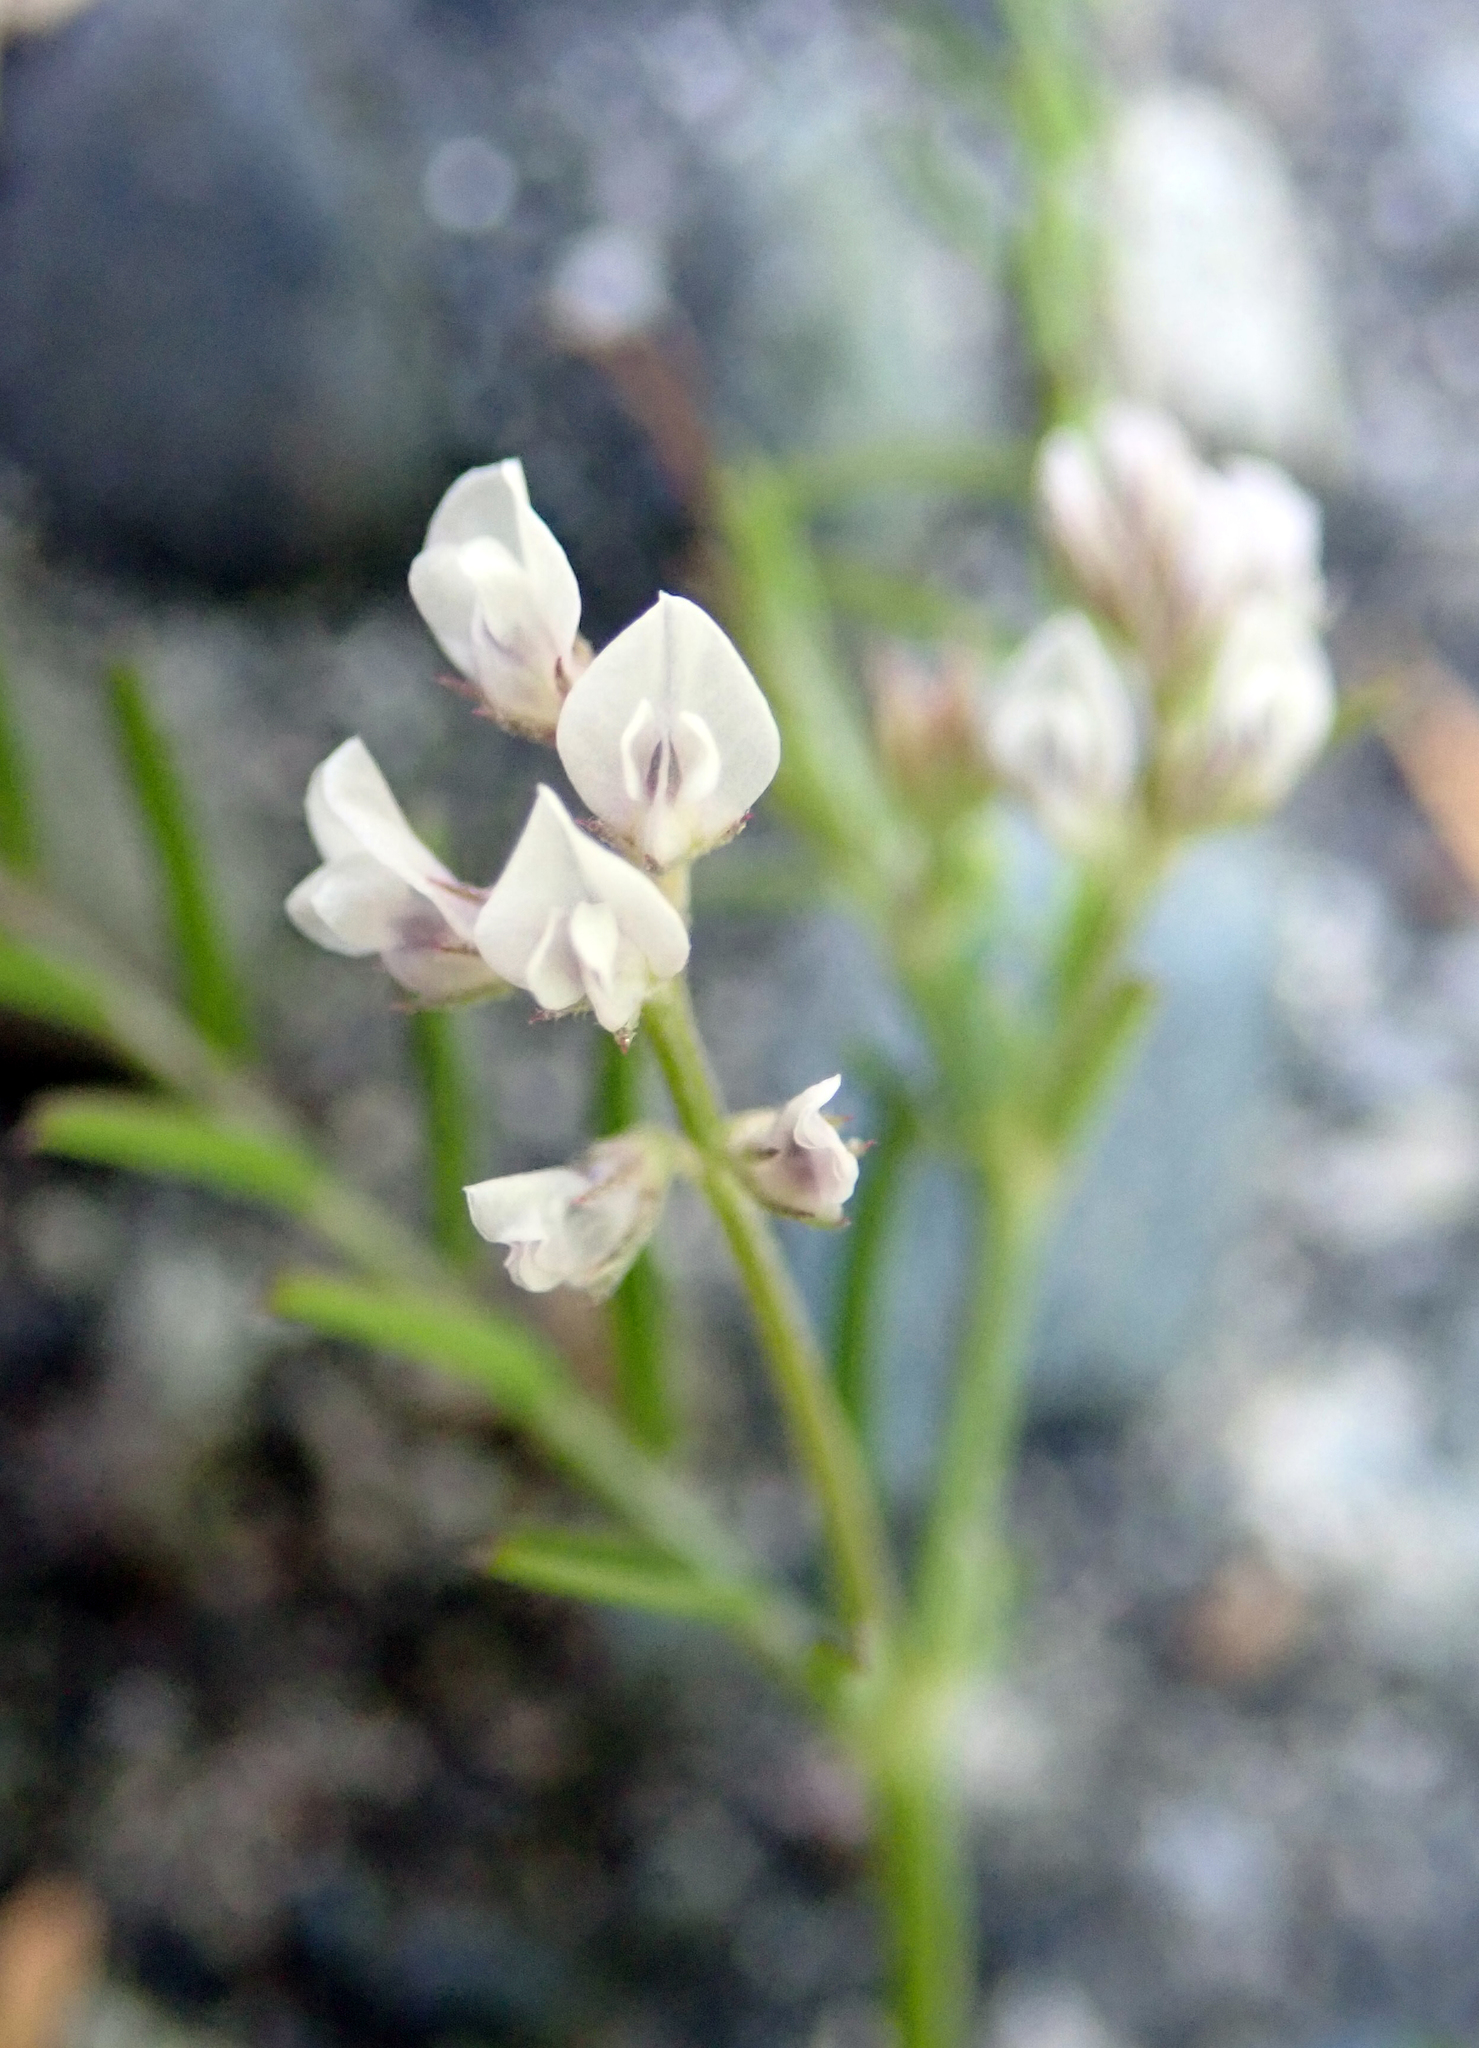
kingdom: Plantae
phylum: Tracheophyta
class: Magnoliopsida
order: Fabales
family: Fabaceae
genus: Vicia
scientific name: Vicia hirsuta
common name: Tiny vetch
